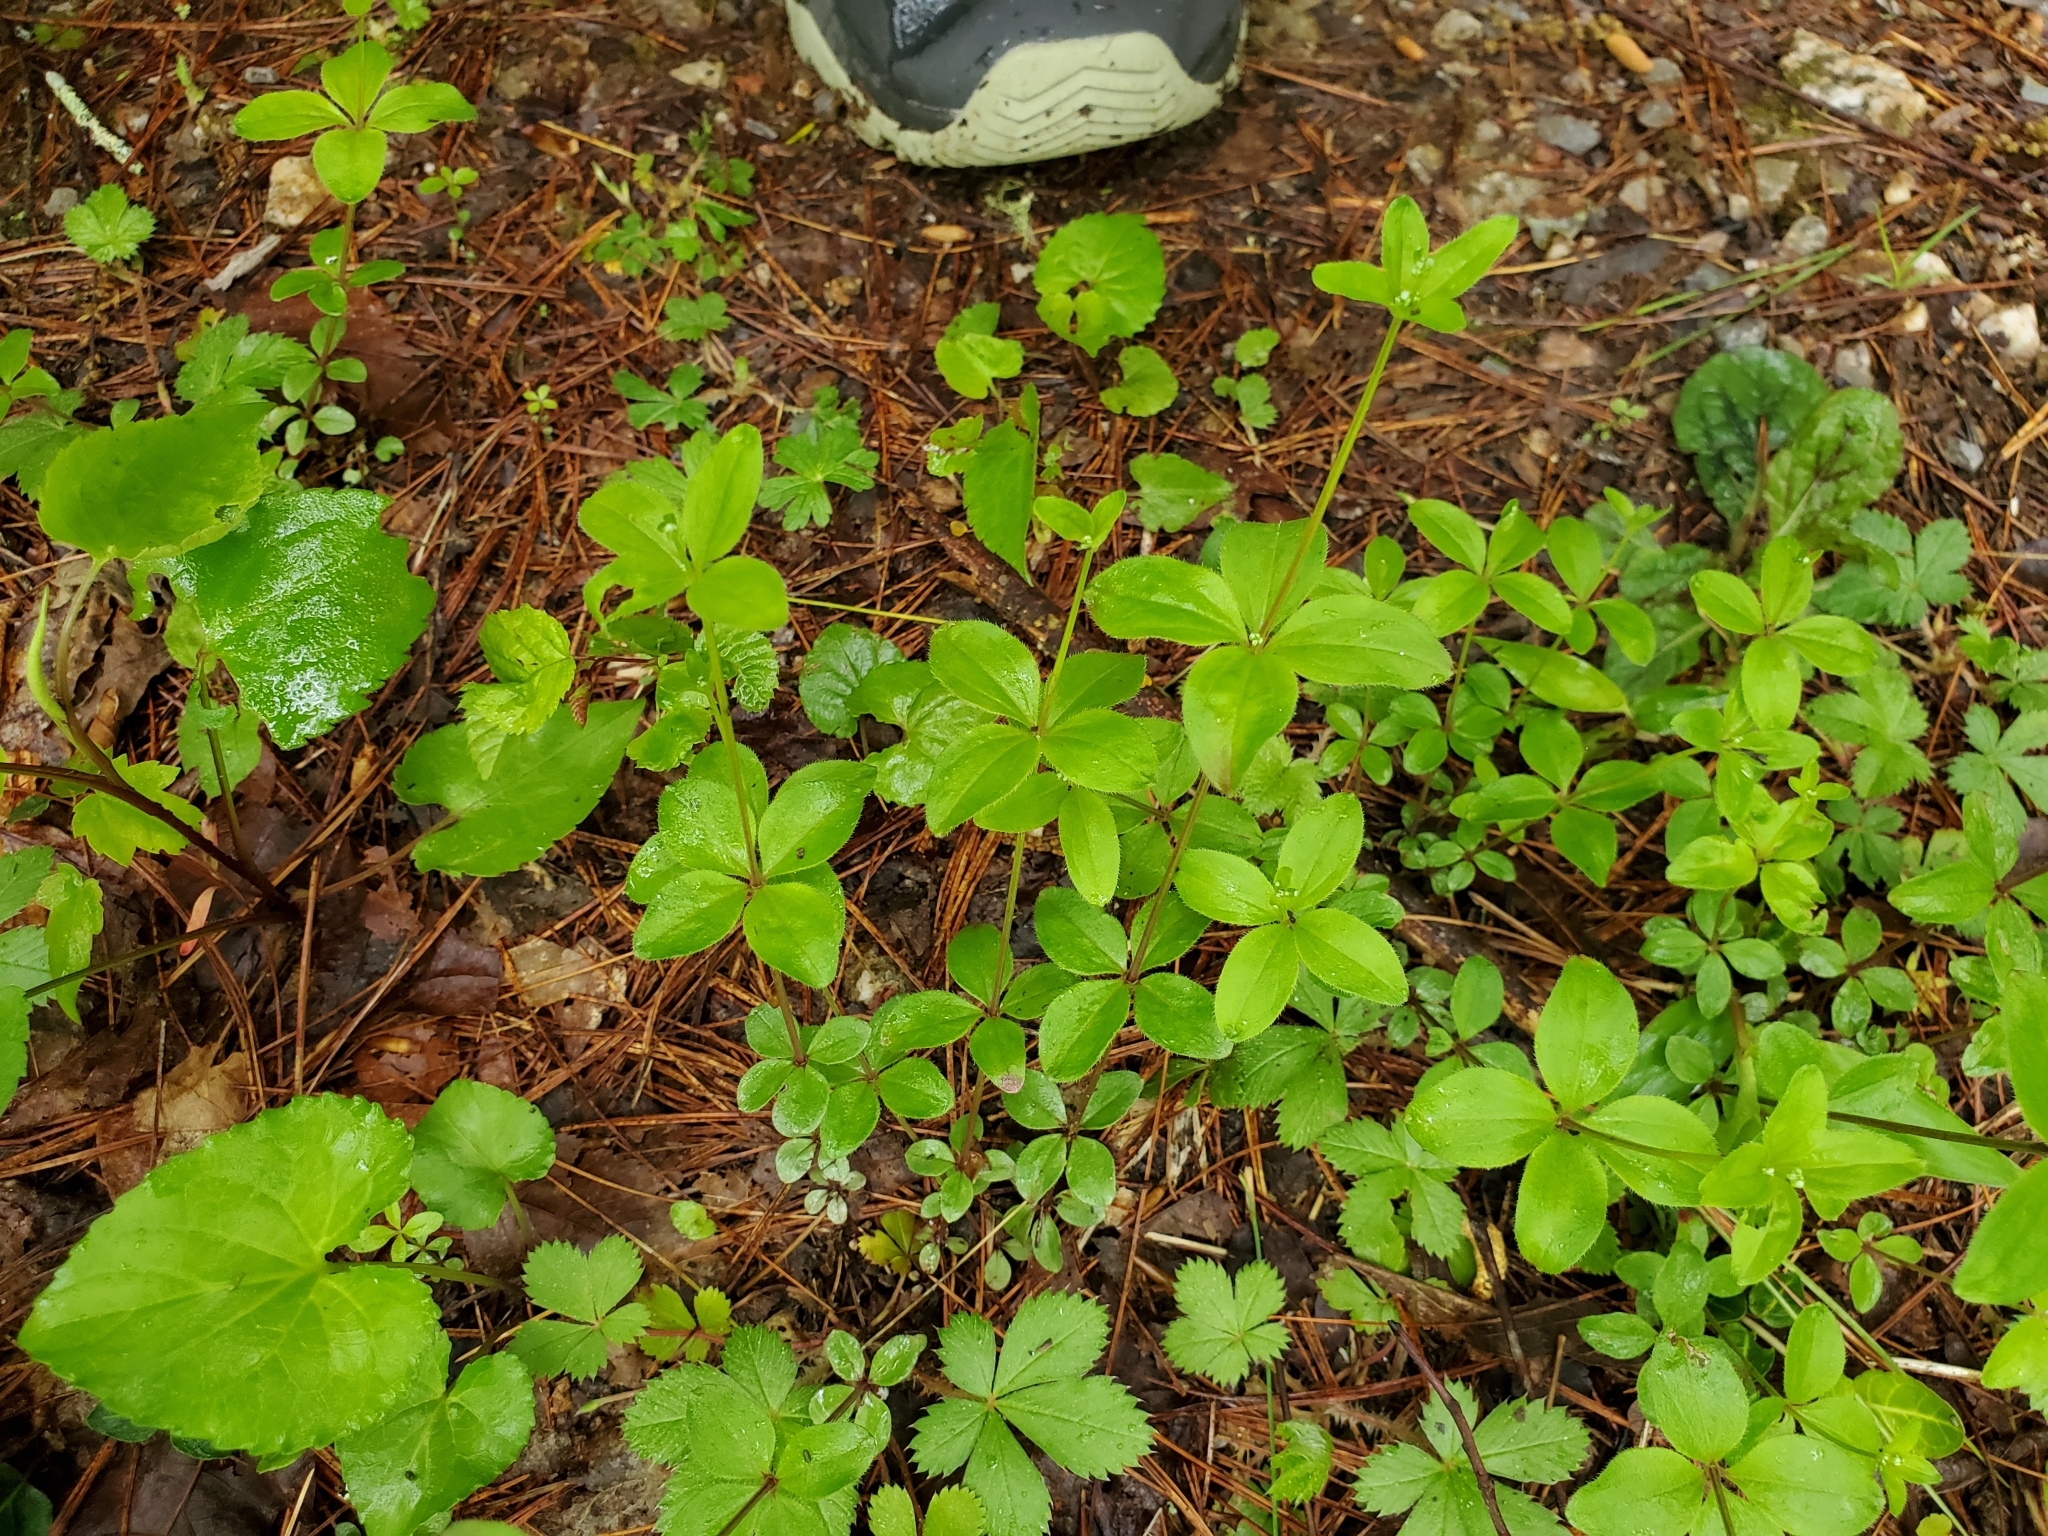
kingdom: Plantae
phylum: Tracheophyta
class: Magnoliopsida
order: Gentianales
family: Rubiaceae
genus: Galium
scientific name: Galium circaezans
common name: Forest bedstraw
